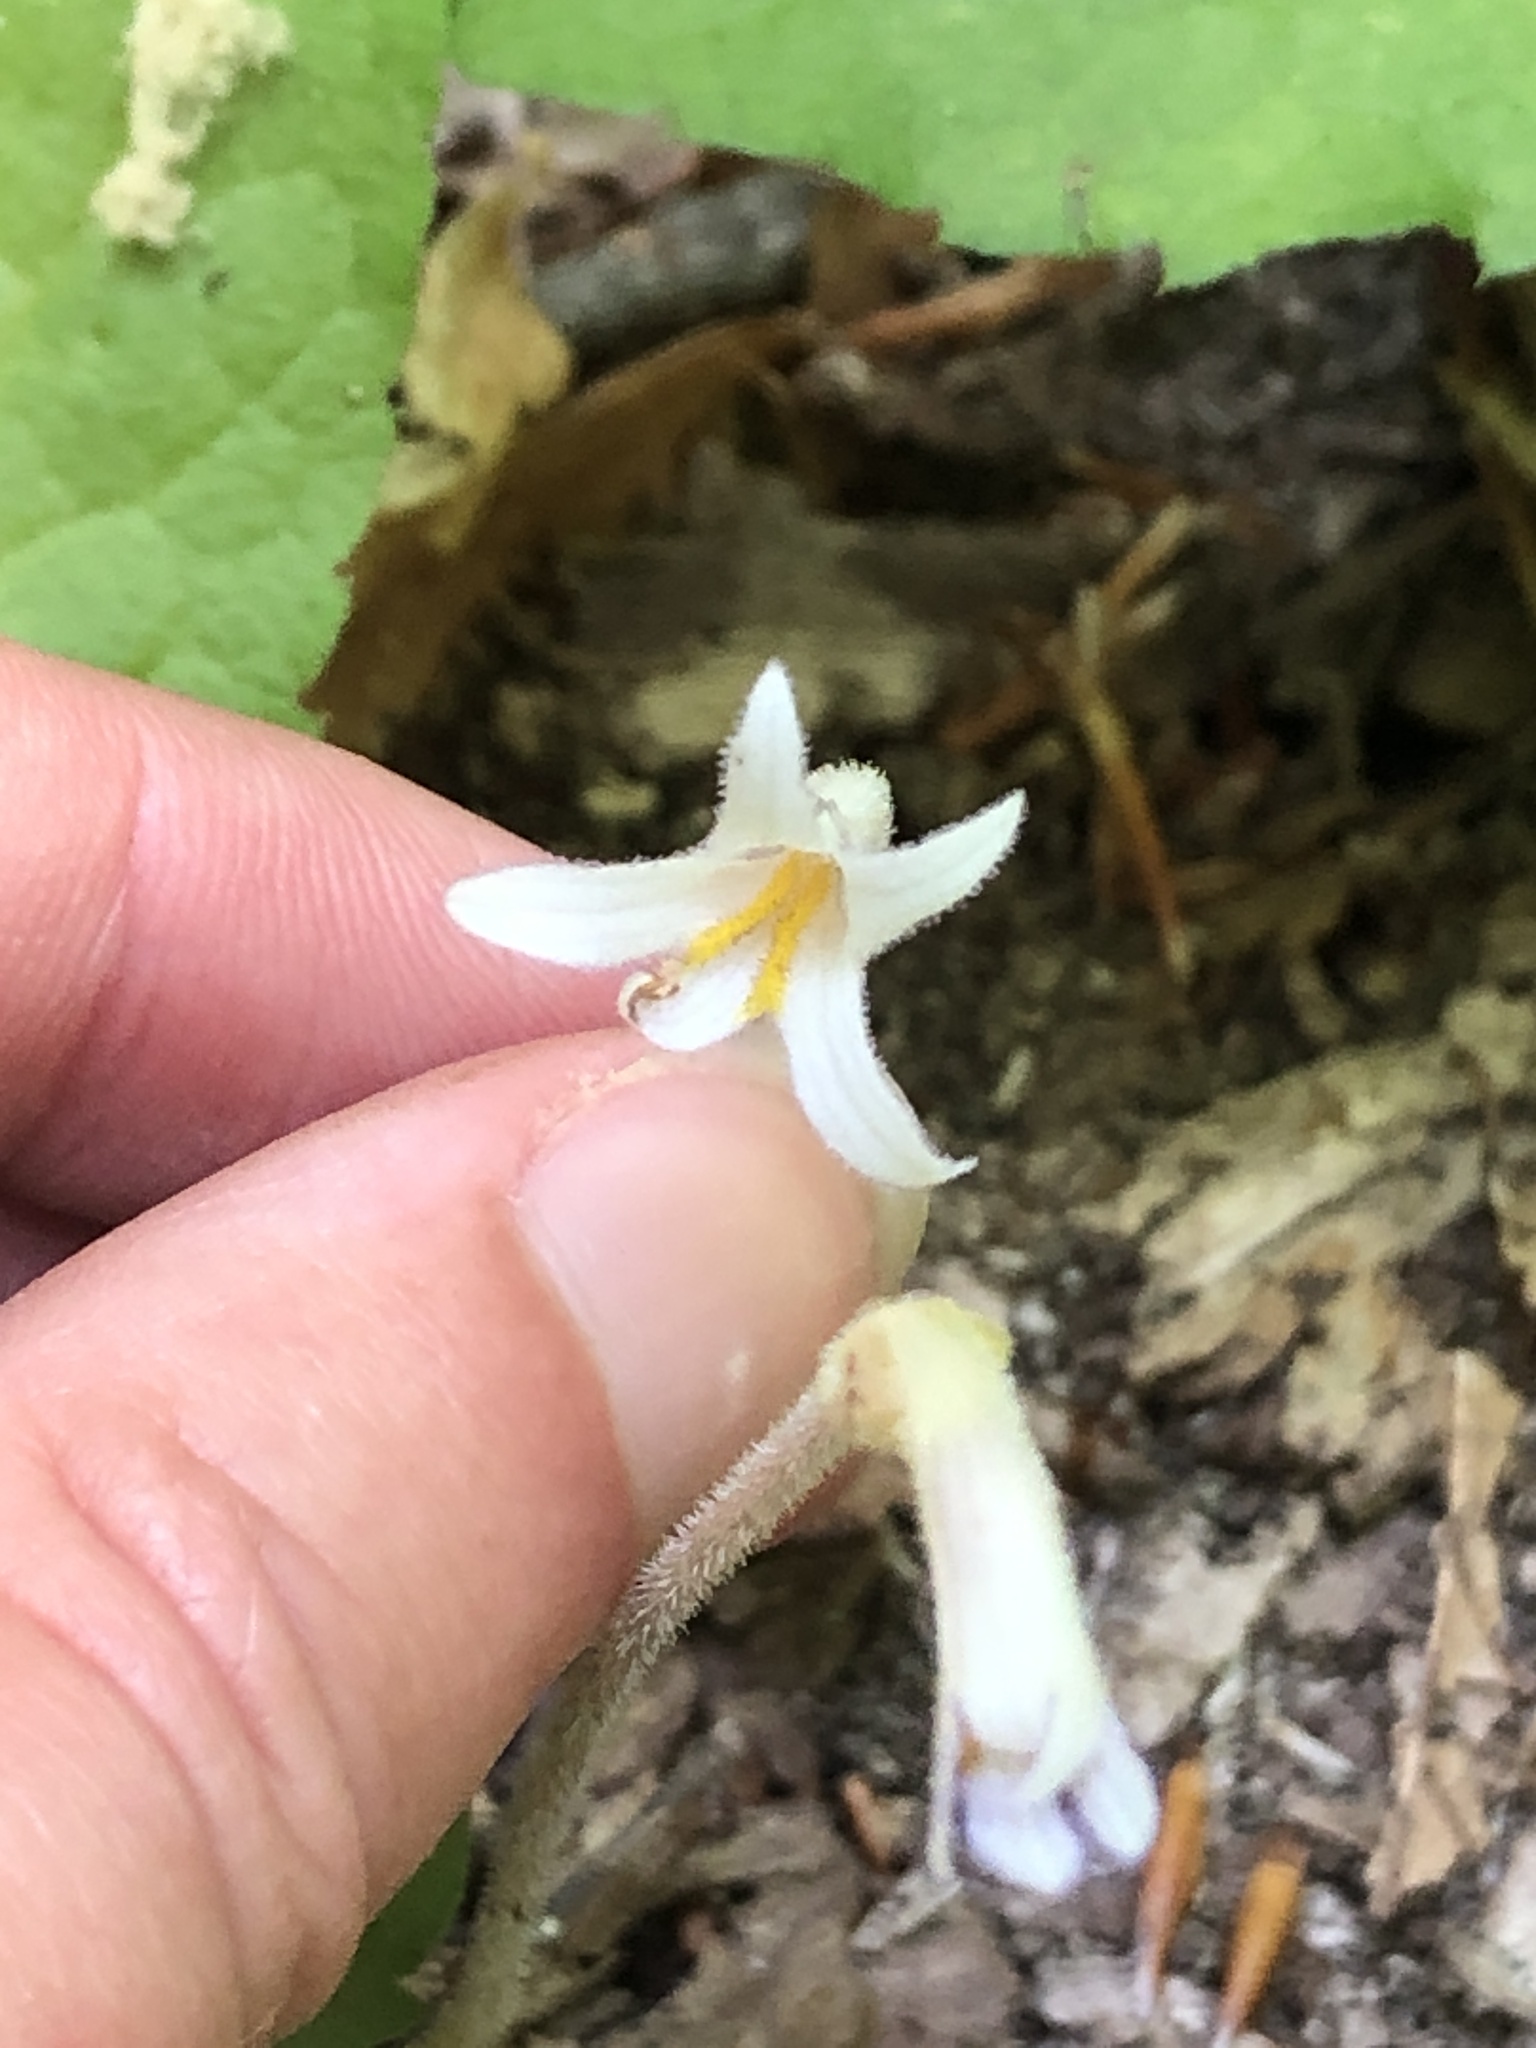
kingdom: Plantae
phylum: Tracheophyta
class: Magnoliopsida
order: Lamiales
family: Orobanchaceae
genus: Aphyllon
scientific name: Aphyllon uniflorum
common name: One-flowered broomrape
